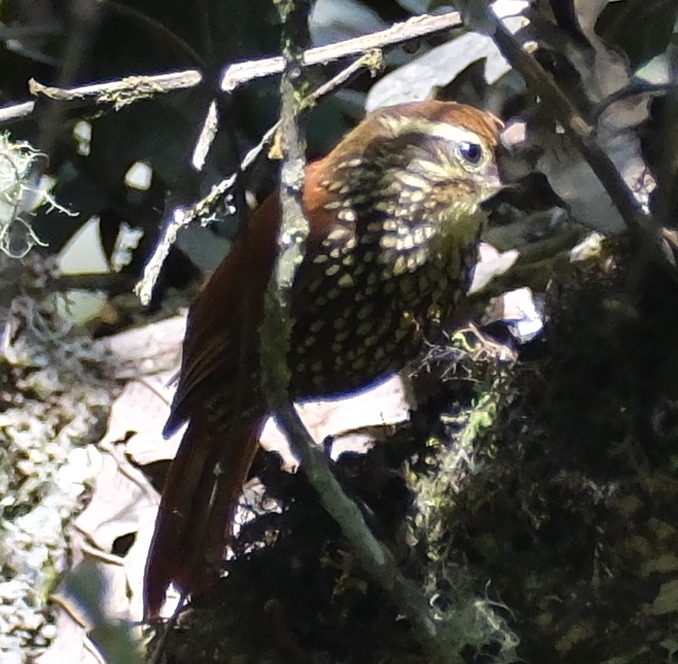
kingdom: Animalia
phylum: Chordata
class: Aves
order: Passeriformes
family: Furnariidae
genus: Margarornis
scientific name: Margarornis squamiger
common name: Pearled treerunner
